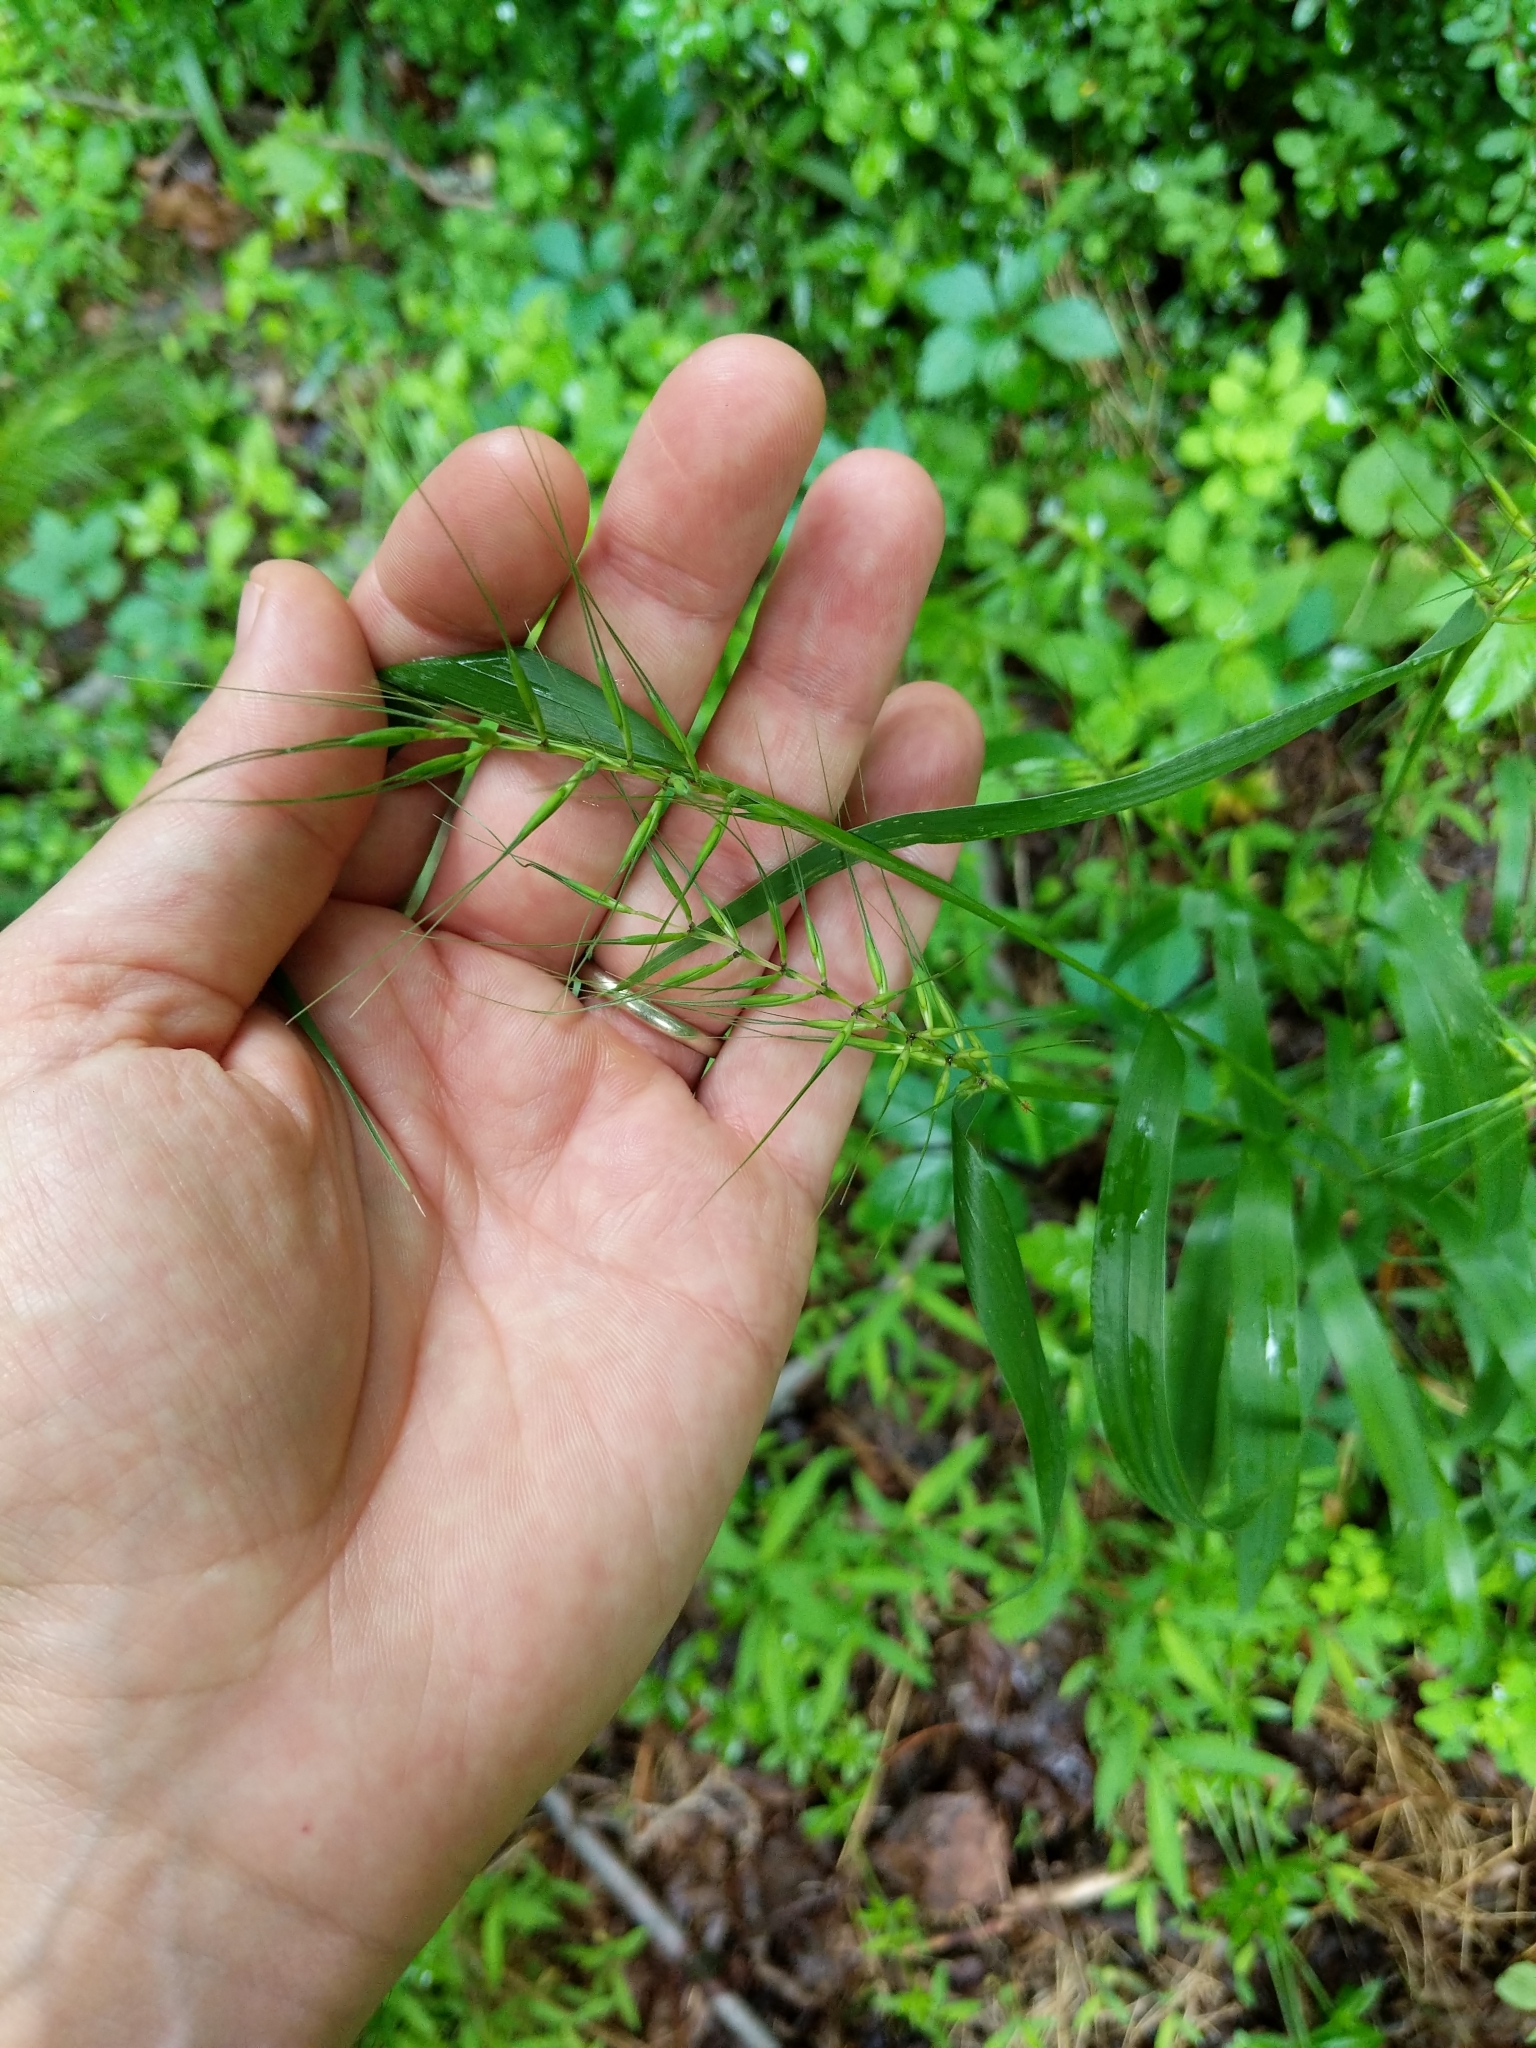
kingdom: Plantae
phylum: Tracheophyta
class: Liliopsida
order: Poales
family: Poaceae
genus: Elymus
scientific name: Elymus hystrix
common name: Bottlebrush grass
